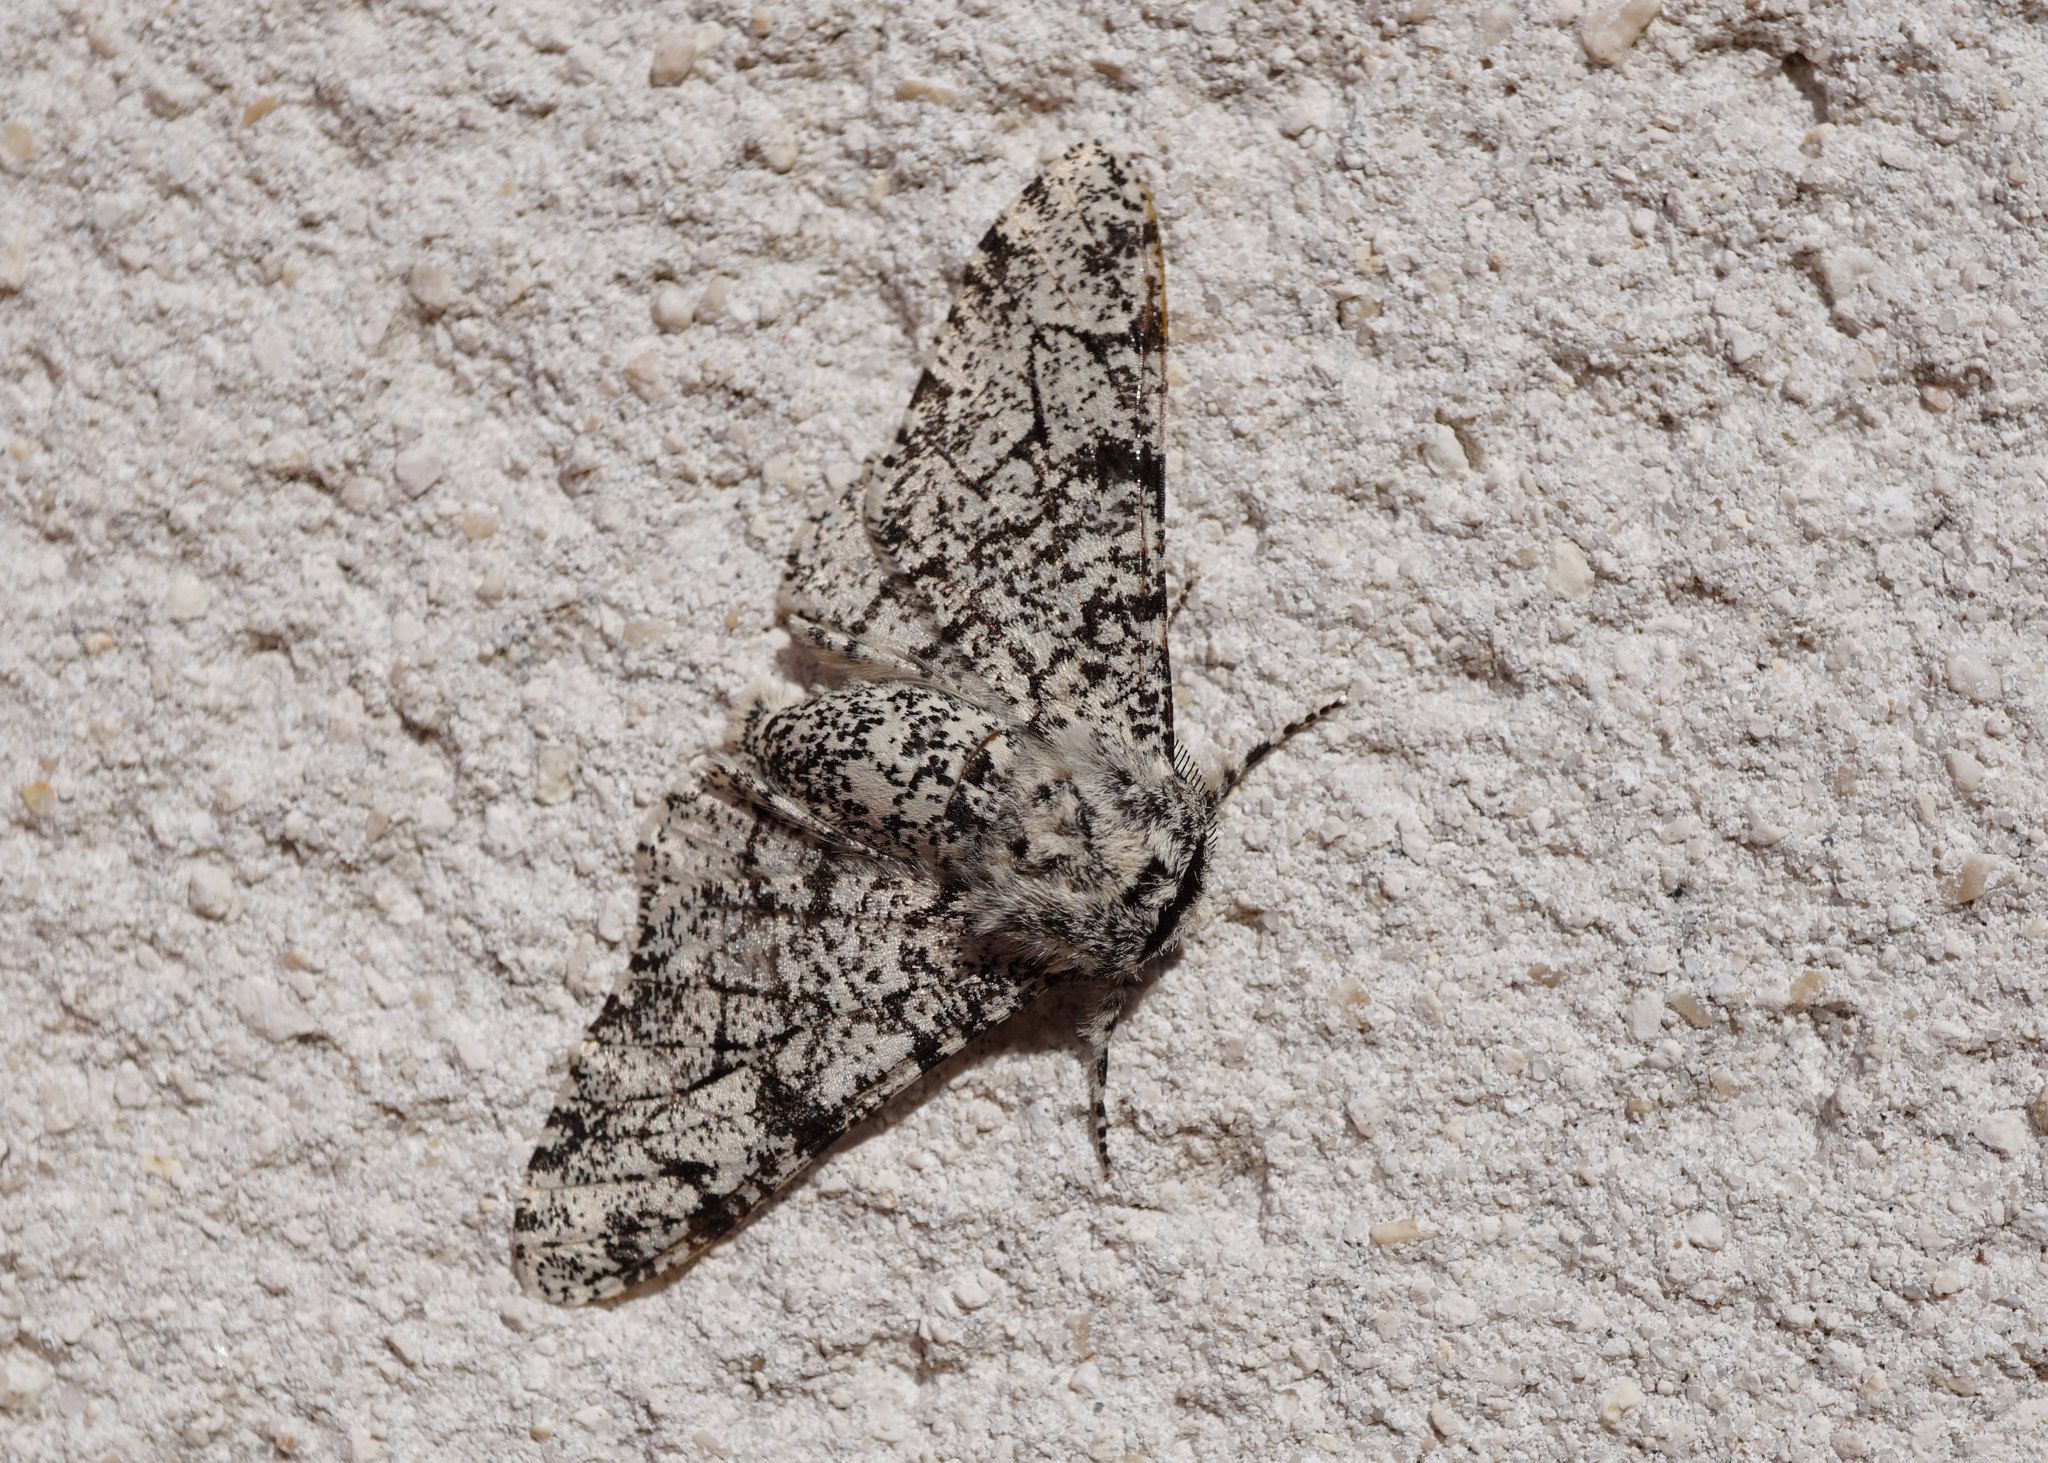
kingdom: Animalia
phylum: Arthropoda
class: Insecta
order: Lepidoptera
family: Geometridae
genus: Biston
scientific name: Biston betularia
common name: Peppered moth
